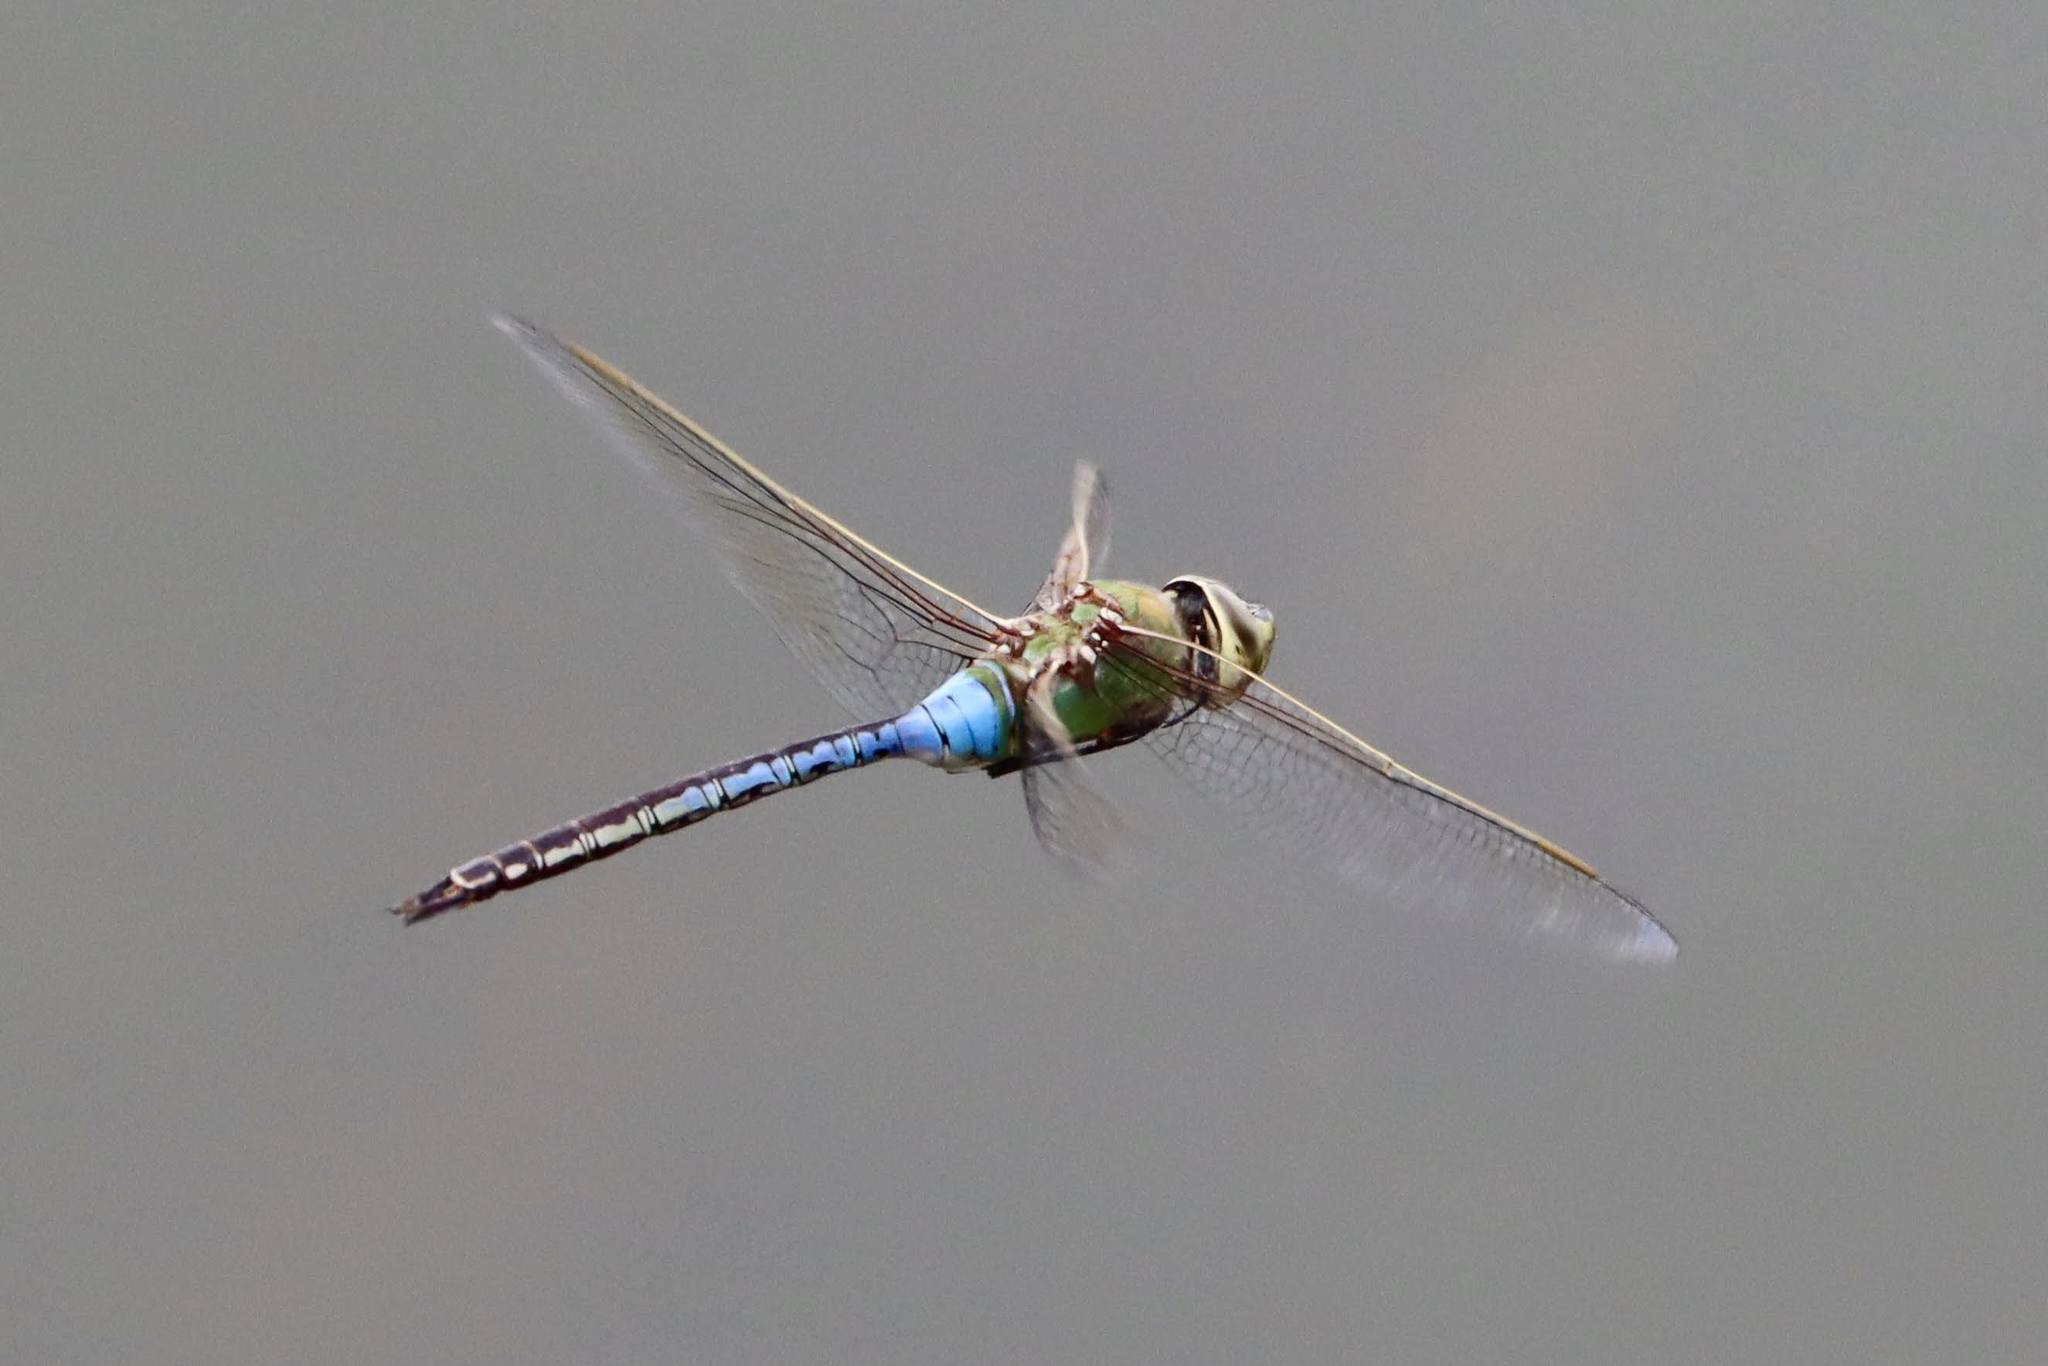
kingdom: Animalia
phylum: Arthropoda
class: Insecta
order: Odonata
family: Aeshnidae
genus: Anax
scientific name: Anax junius
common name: Common green darner
